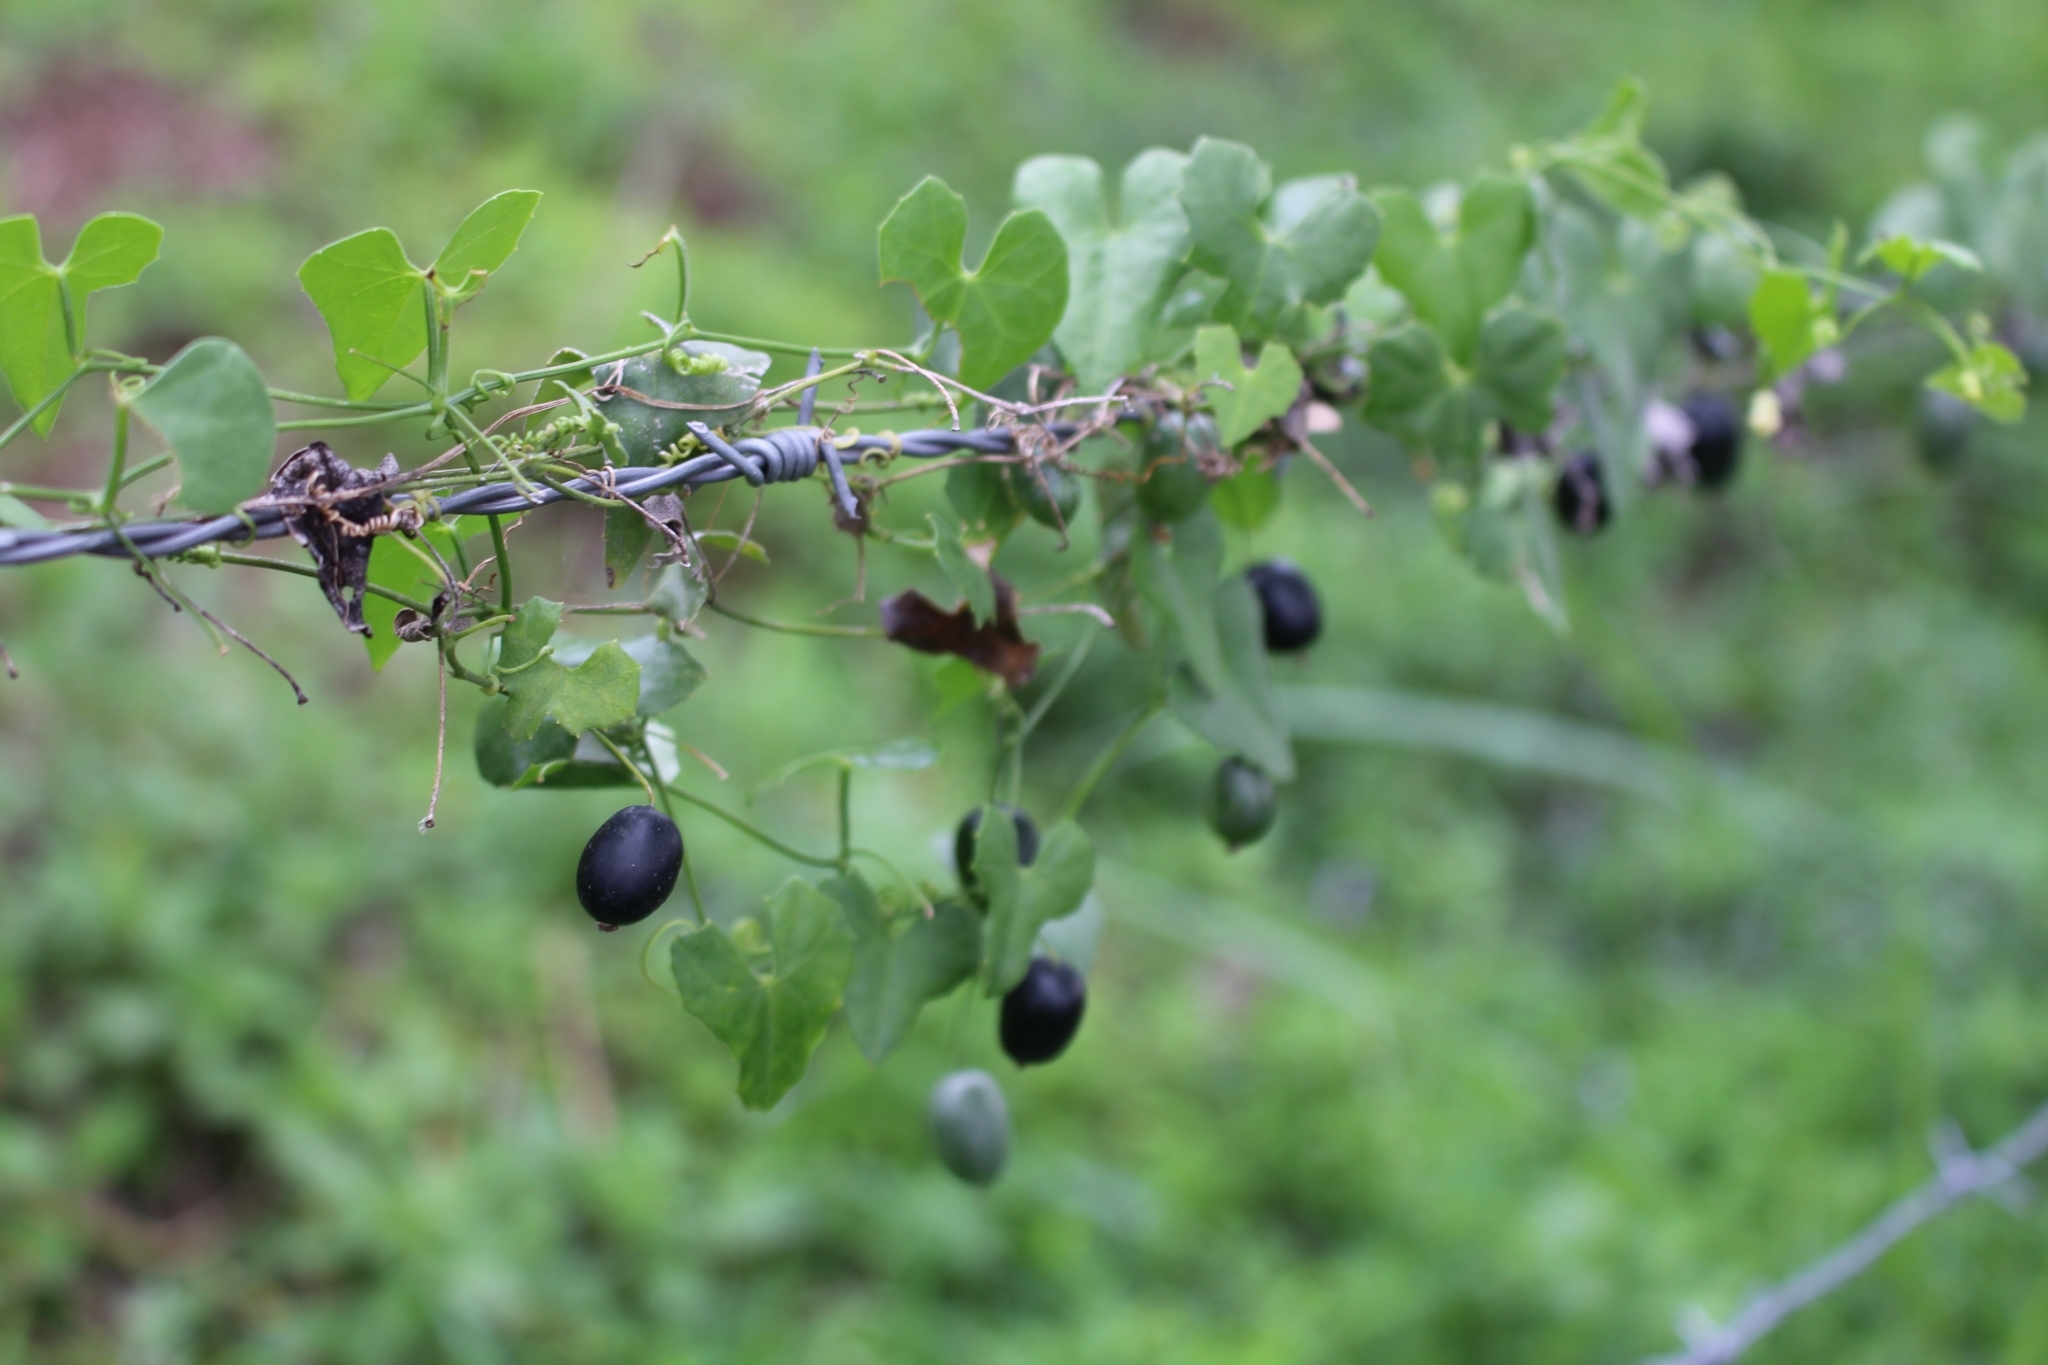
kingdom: Plantae
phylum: Tracheophyta
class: Magnoliopsida
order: Cucurbitales
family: Cucurbitaceae
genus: Melothria
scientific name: Melothria pendula
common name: Creeping-cucumber
